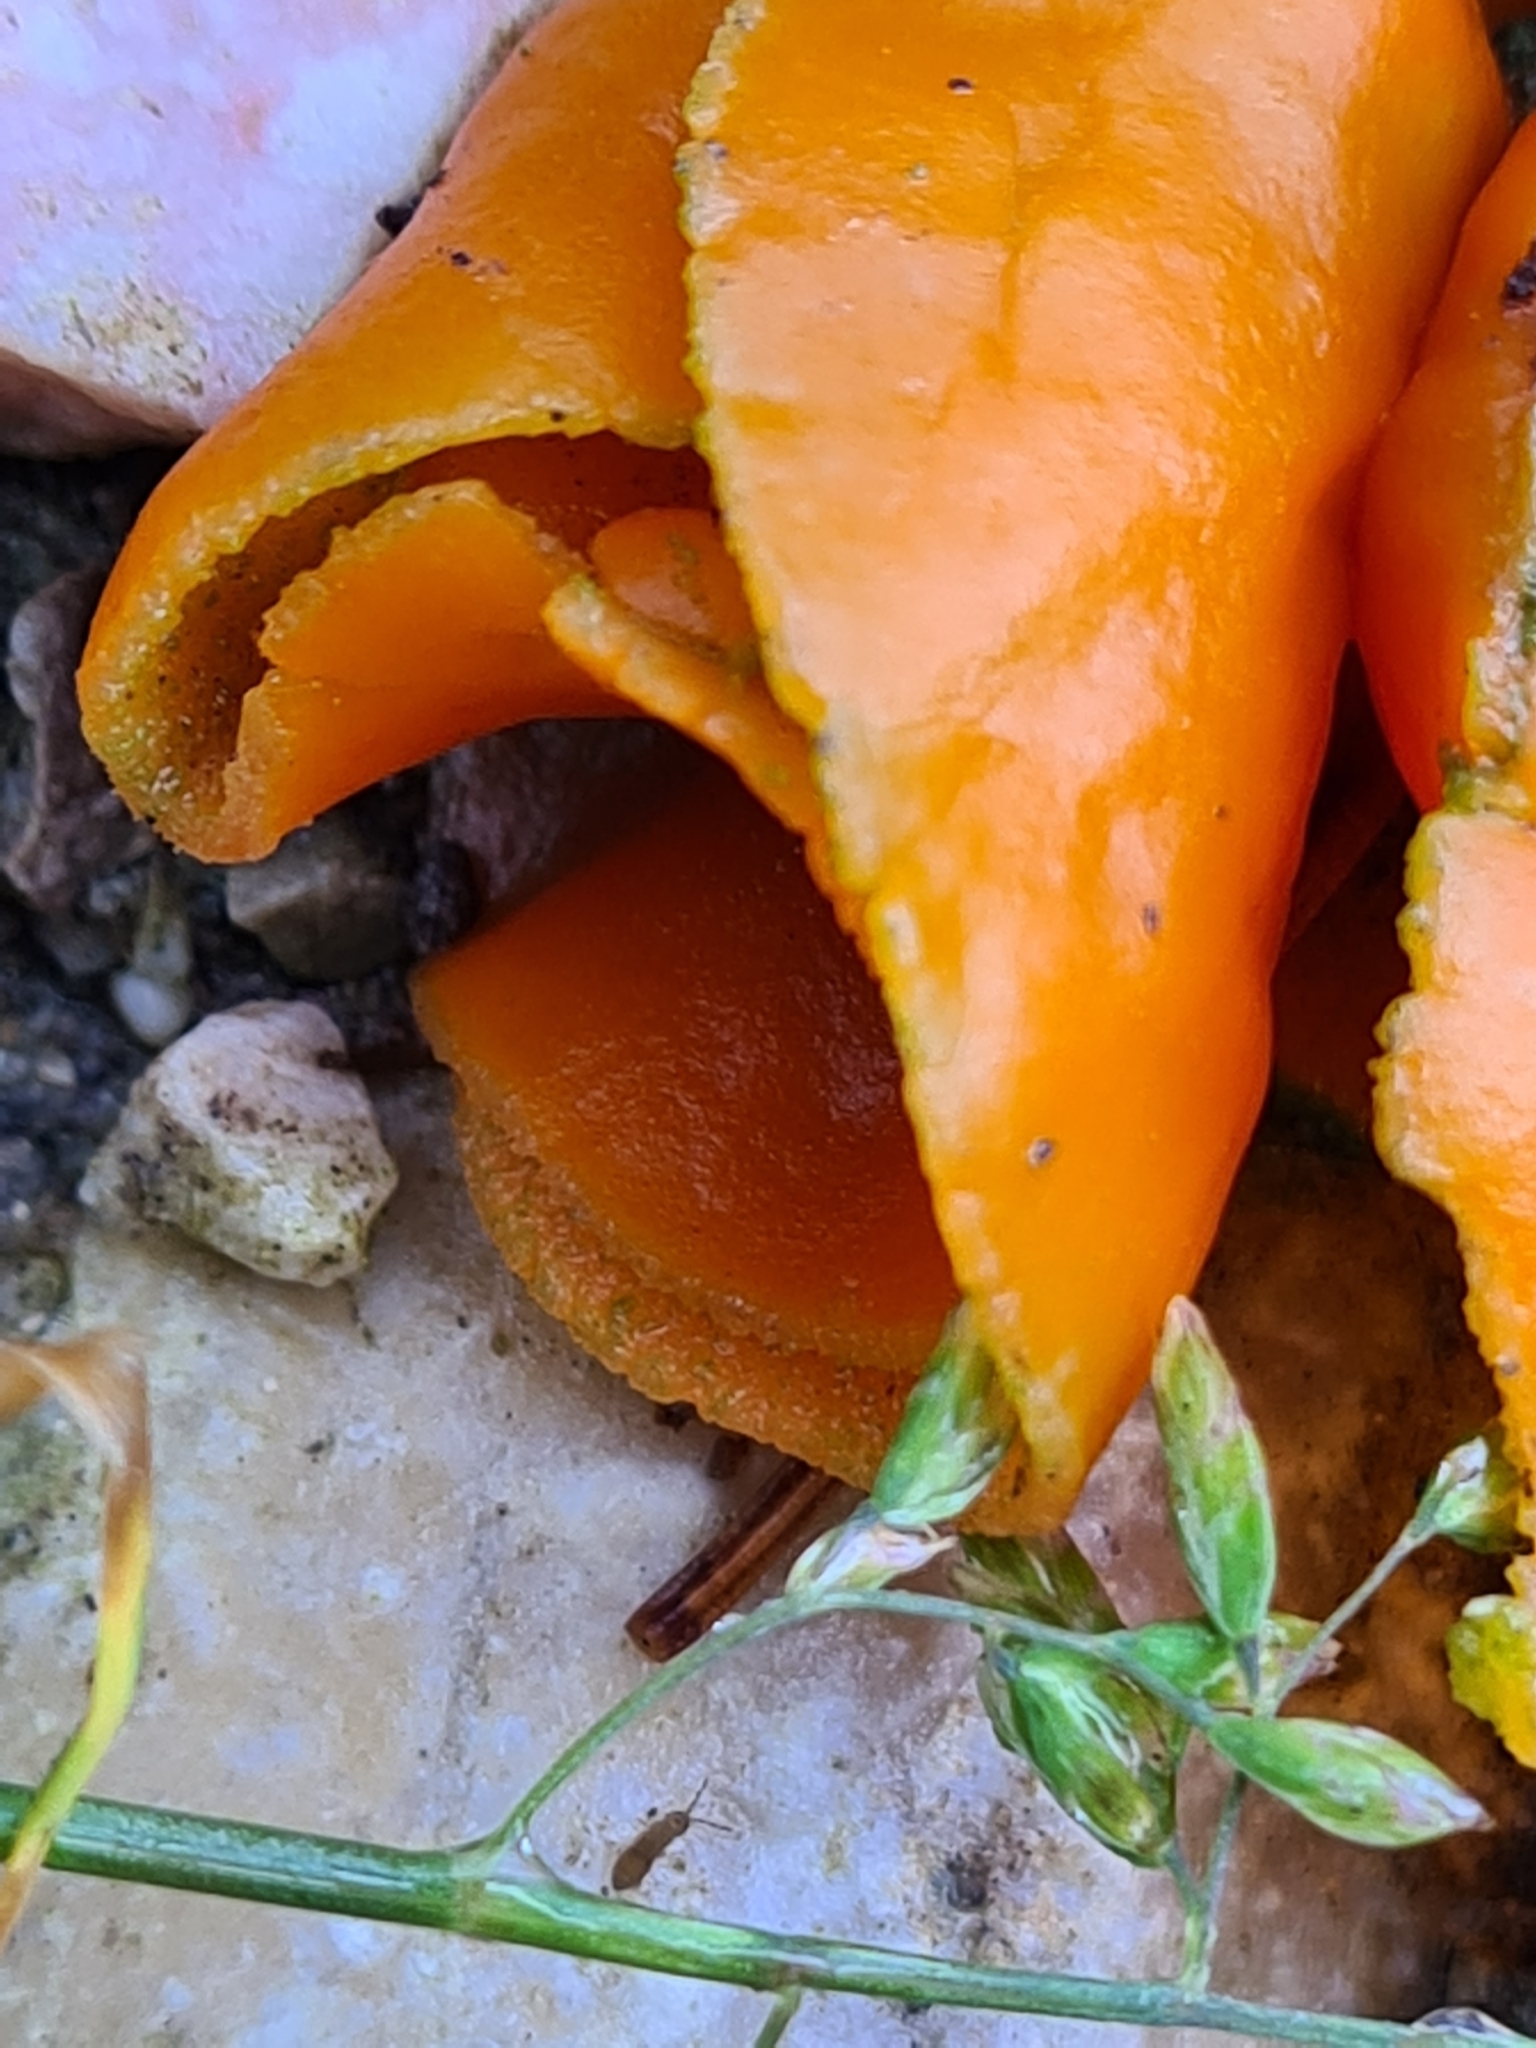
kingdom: Fungi
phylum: Ascomycota
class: Pezizomycetes
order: Pezizales
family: Pyronemataceae
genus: Aleuria
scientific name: Aleuria aurantia
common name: Orange peel fungus
